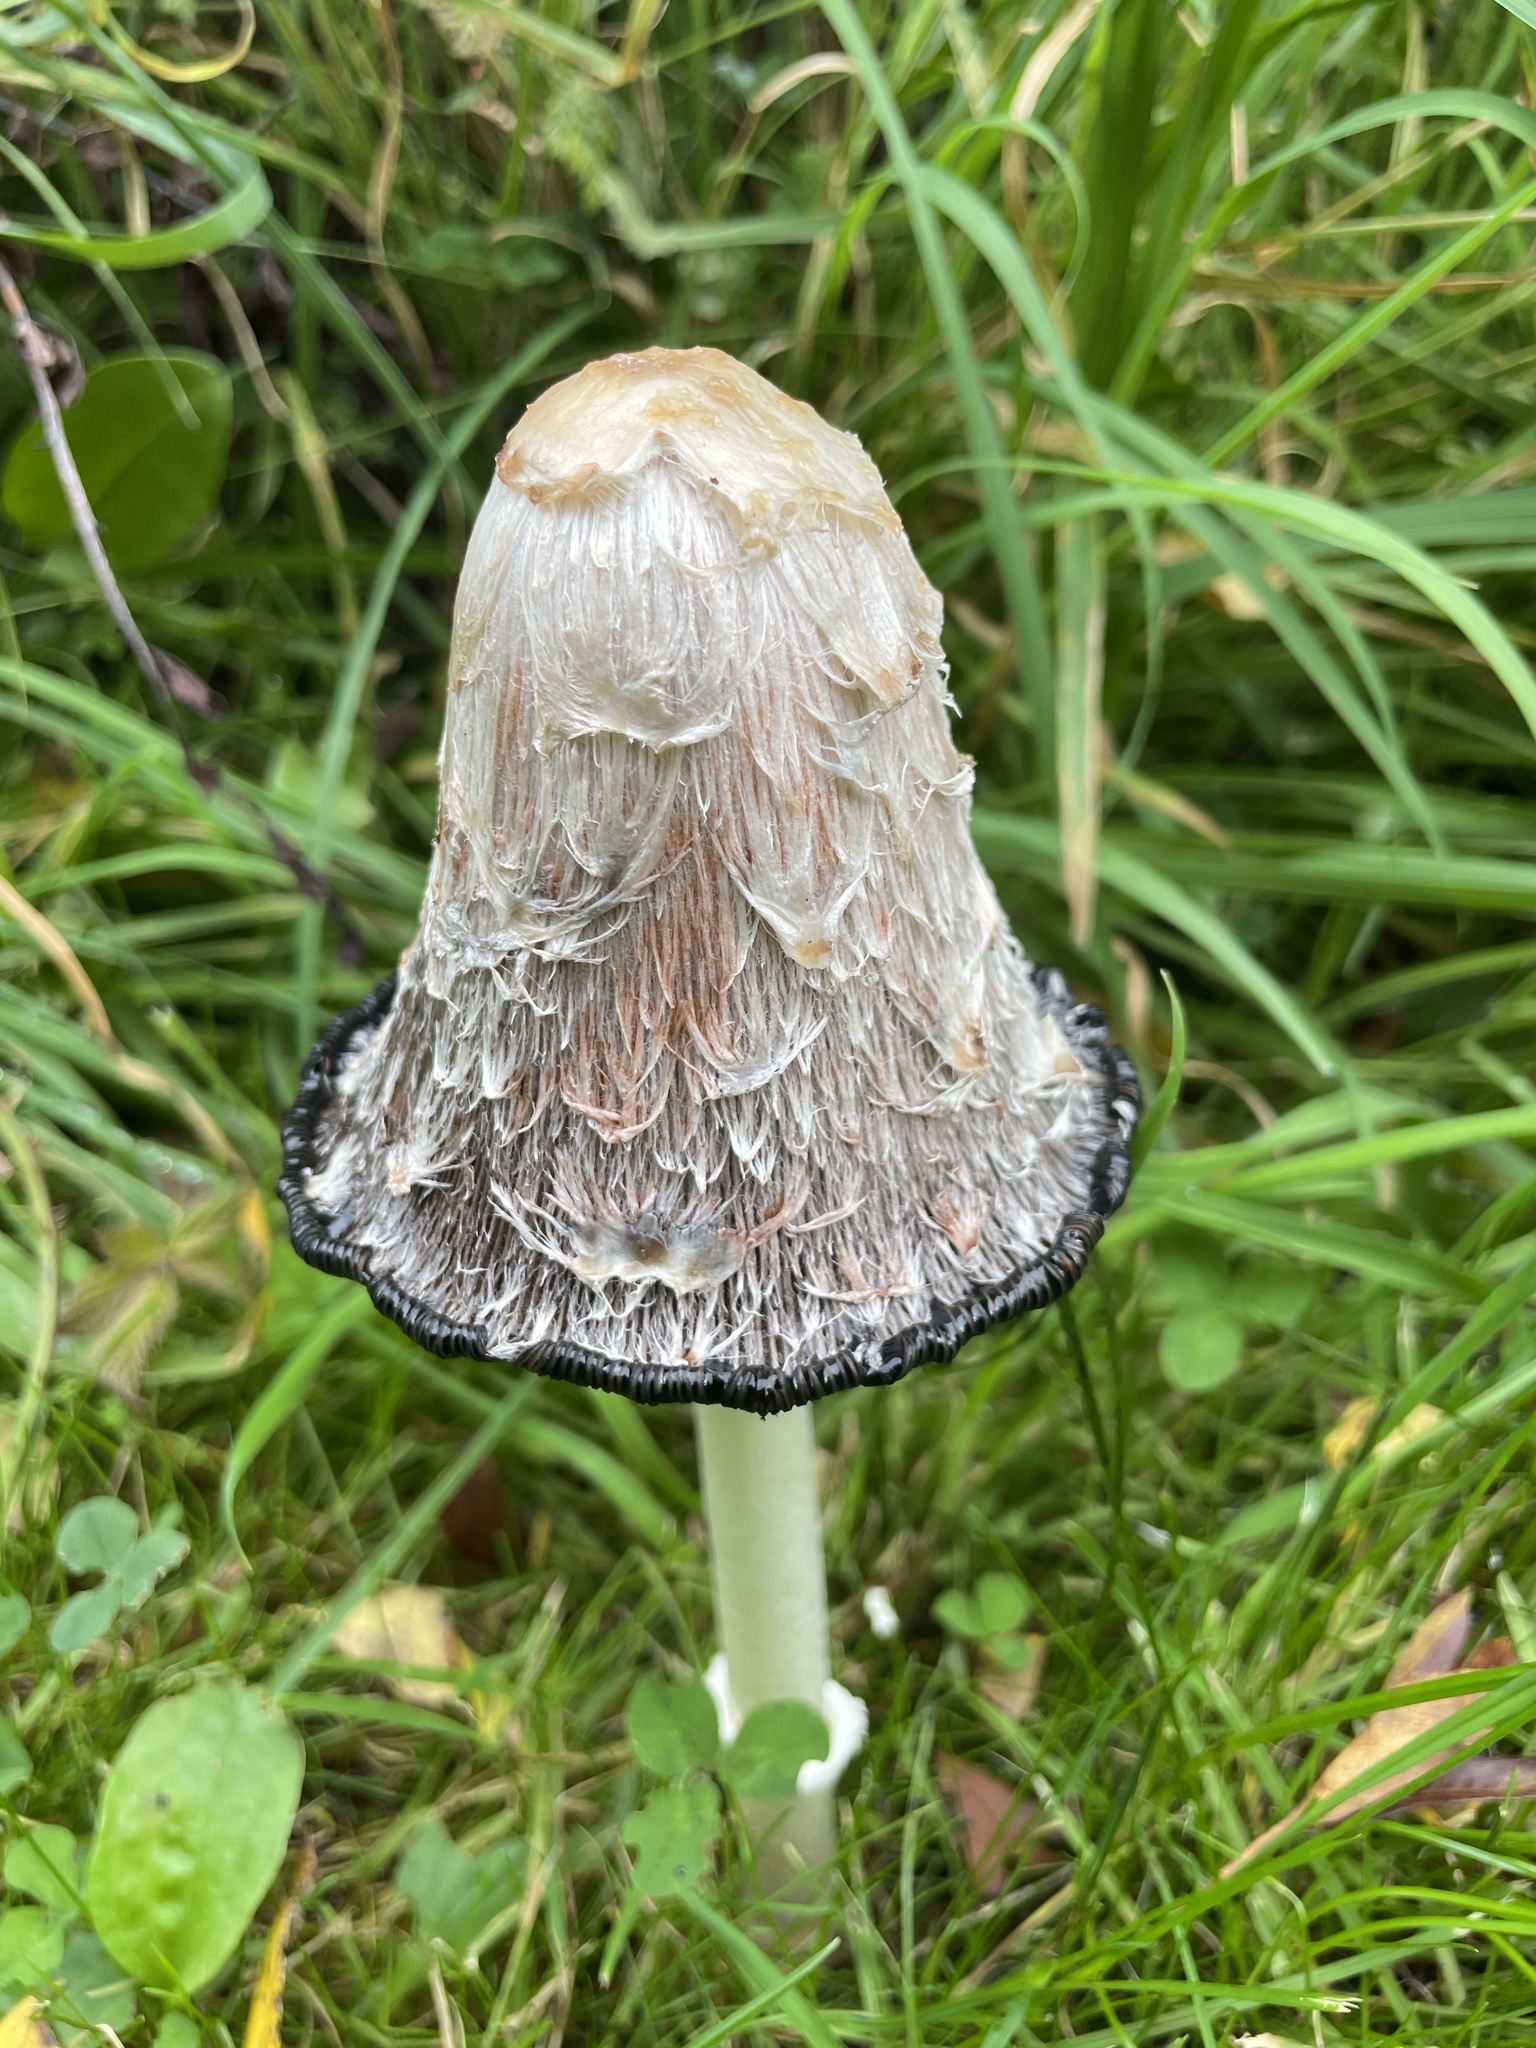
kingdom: Fungi
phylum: Basidiomycota
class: Agaricomycetes
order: Agaricales
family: Agaricaceae
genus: Coprinus
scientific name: Coprinus comatus
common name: Lawyer's wig
